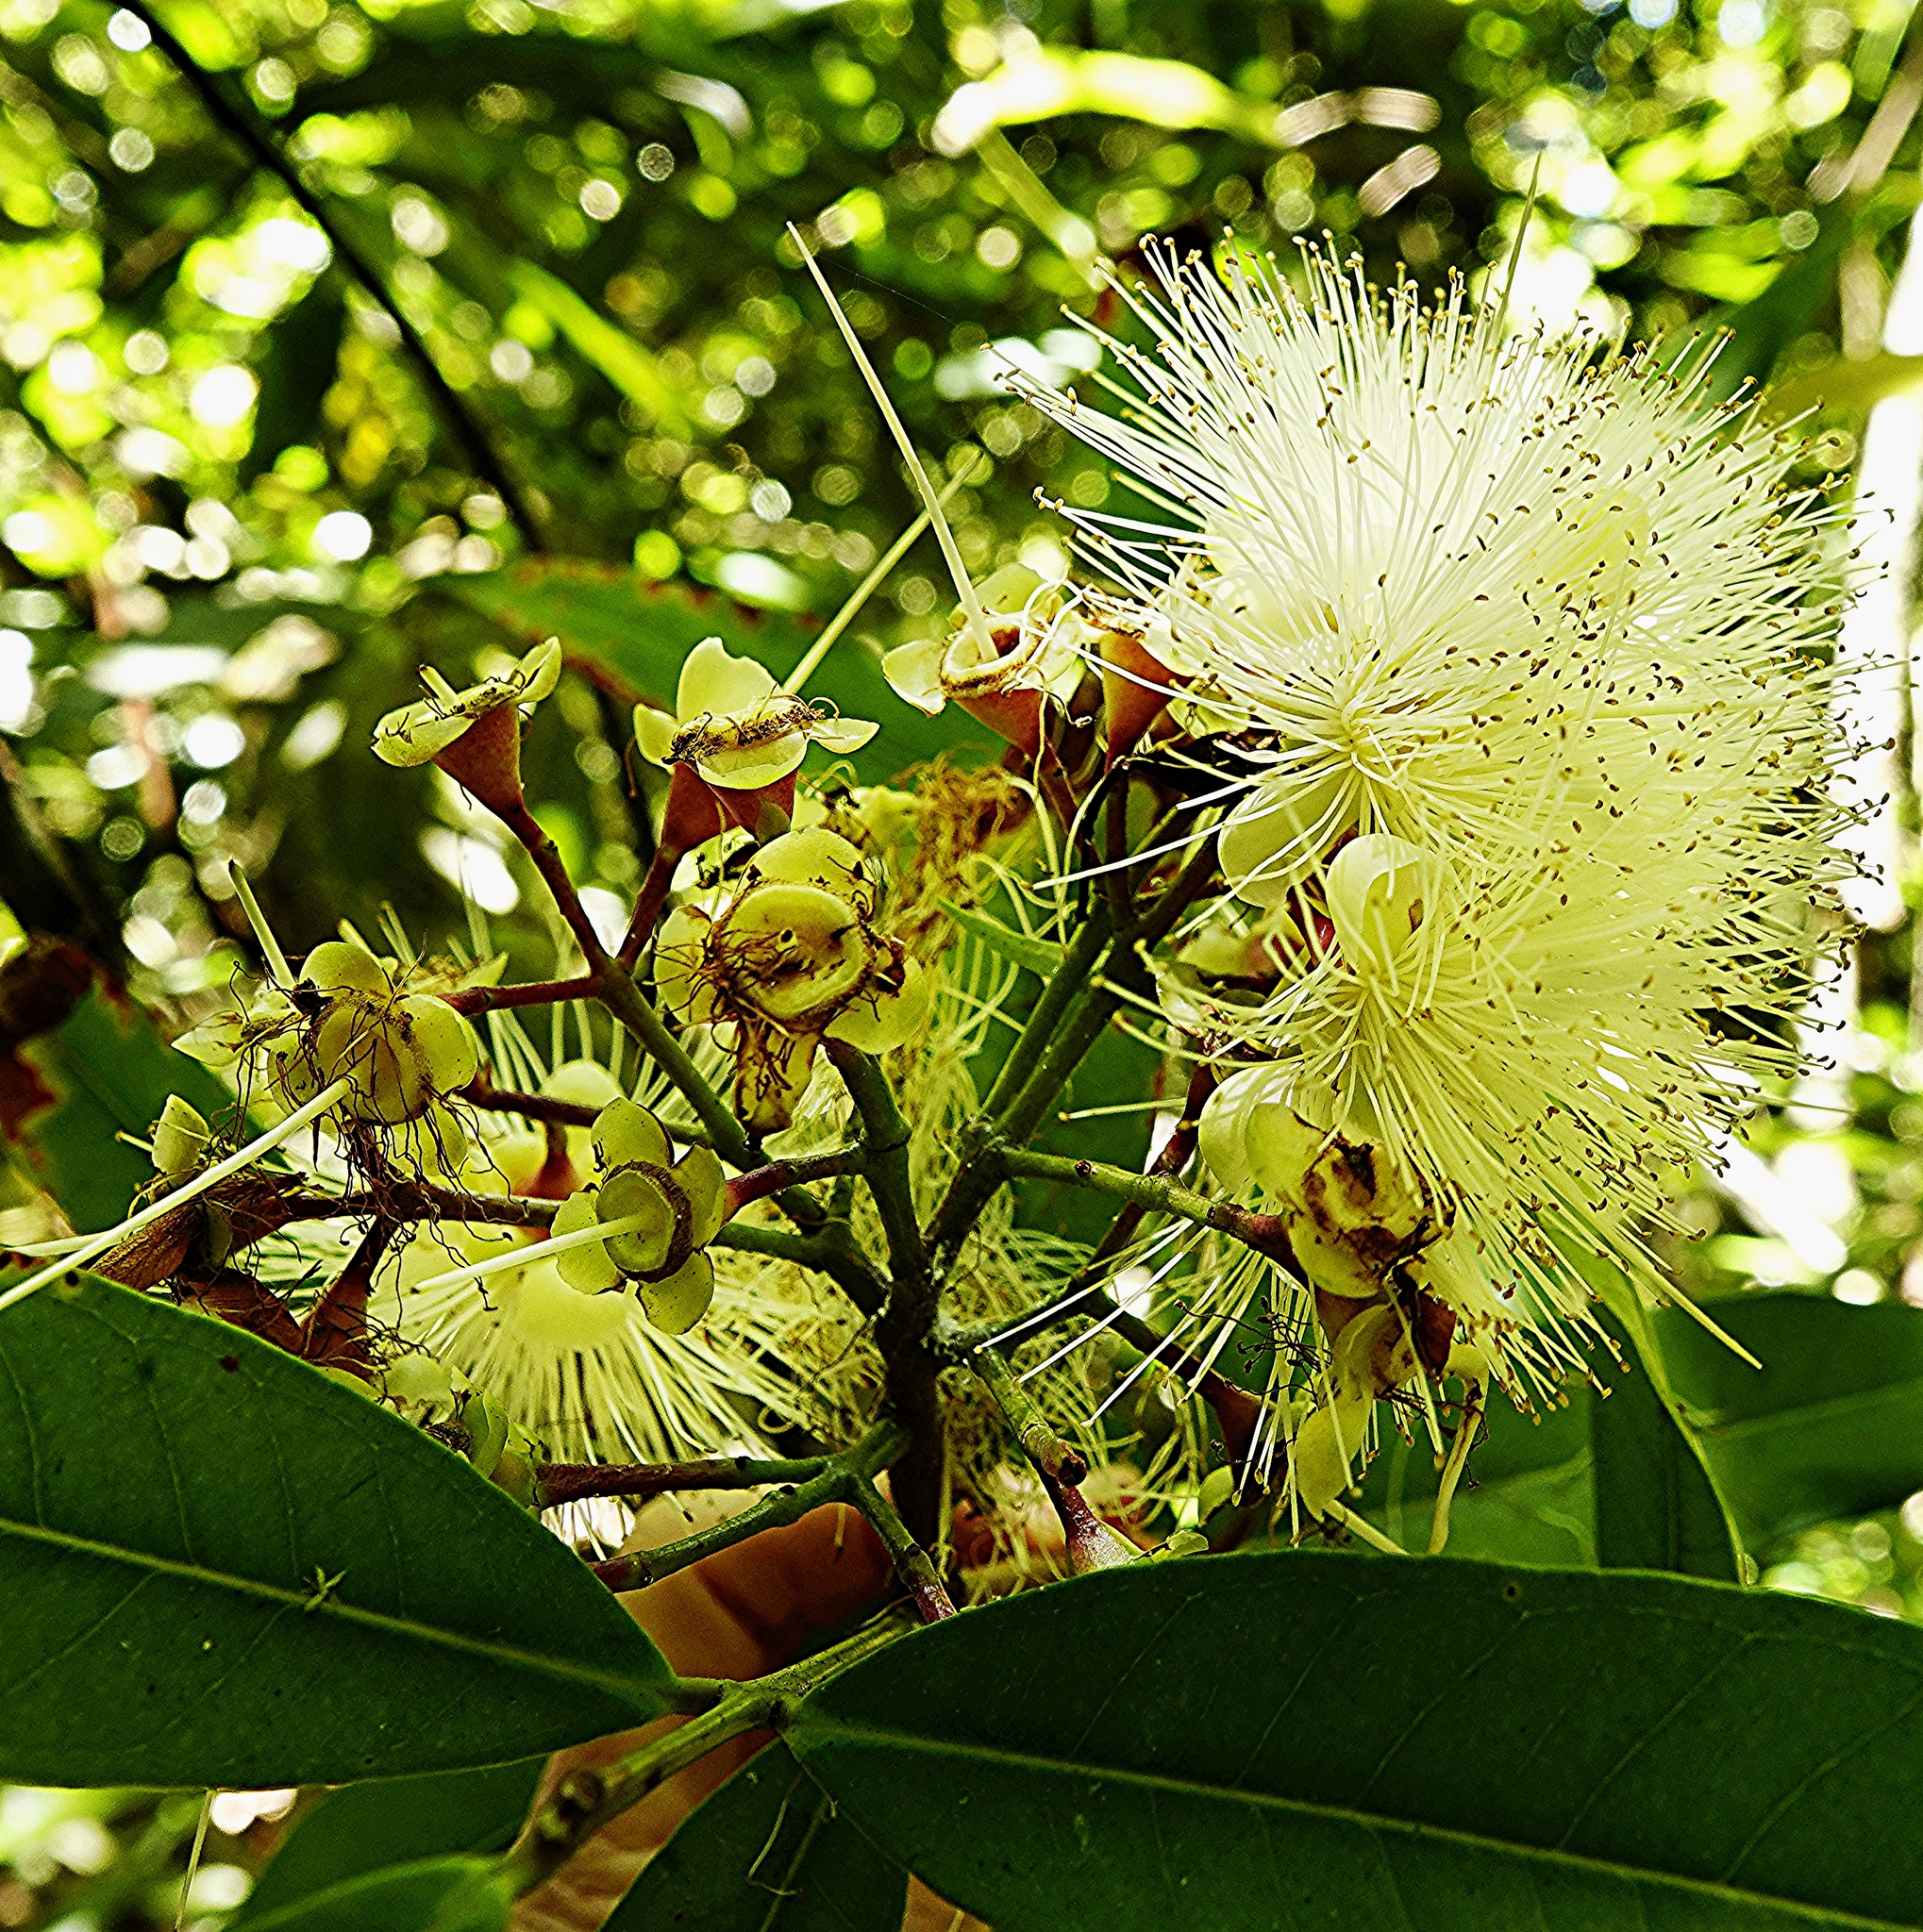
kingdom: Plantae
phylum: Tracheophyta
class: Magnoliopsida
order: Myrtales
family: Myrtaceae
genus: Syzygium
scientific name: Syzygium jambos
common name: Malabar plum
